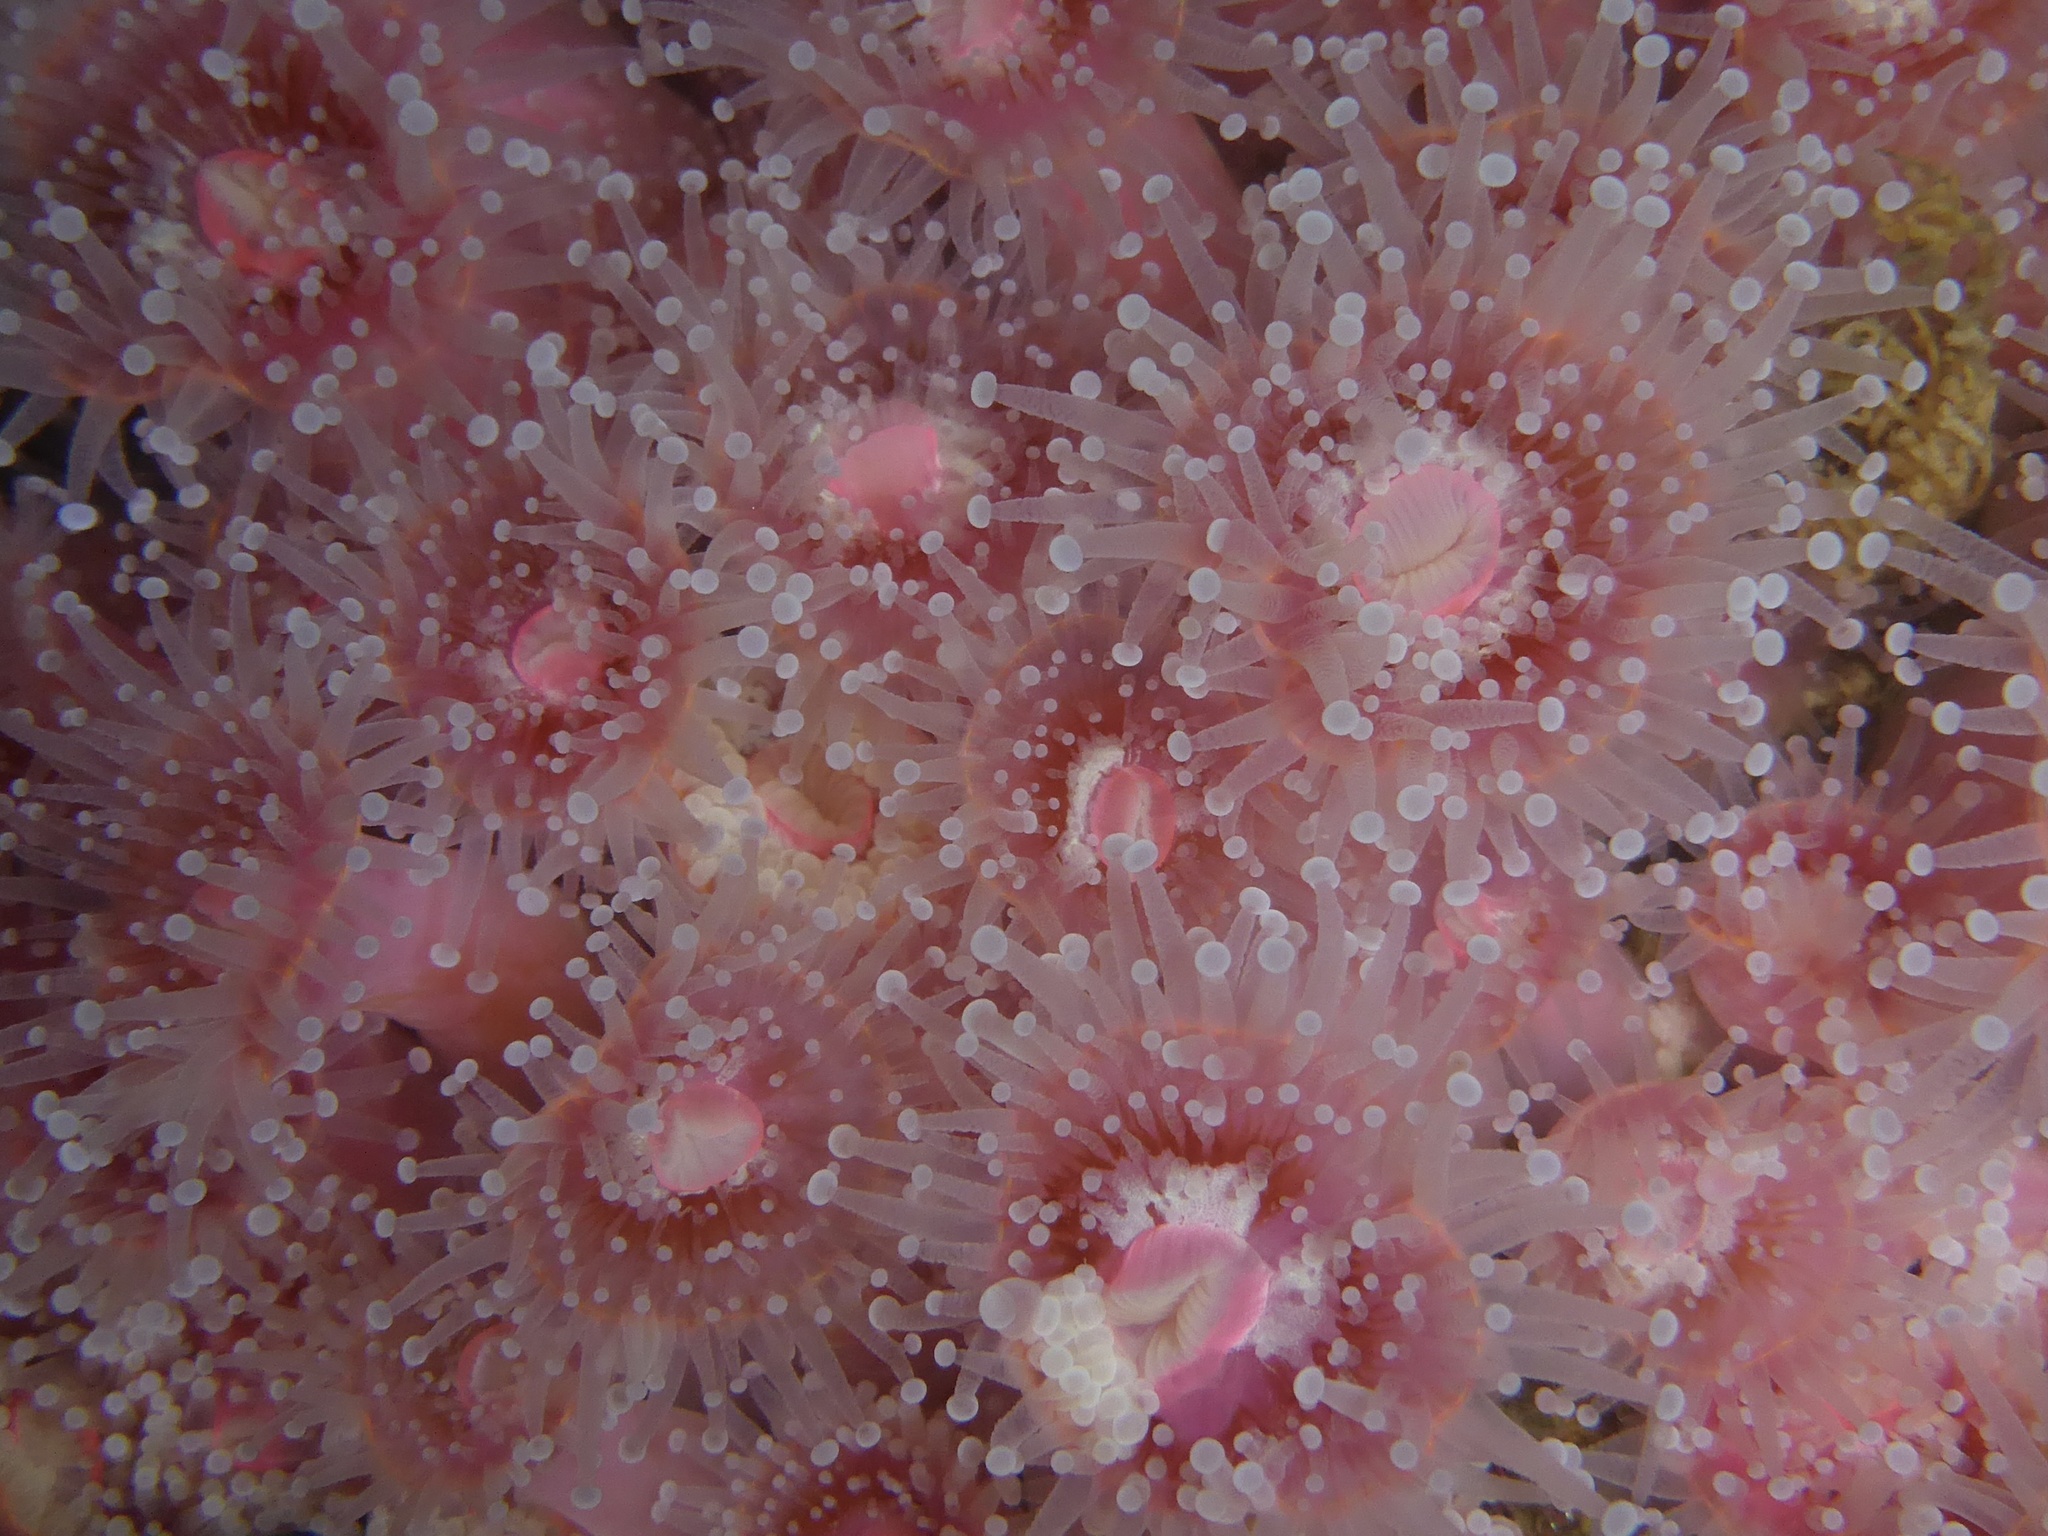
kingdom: Animalia
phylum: Cnidaria
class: Anthozoa
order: Corallimorpharia
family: Corallimorphidae
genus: Corynactis
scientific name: Corynactis californica
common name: Strawberry corallimorpharian
